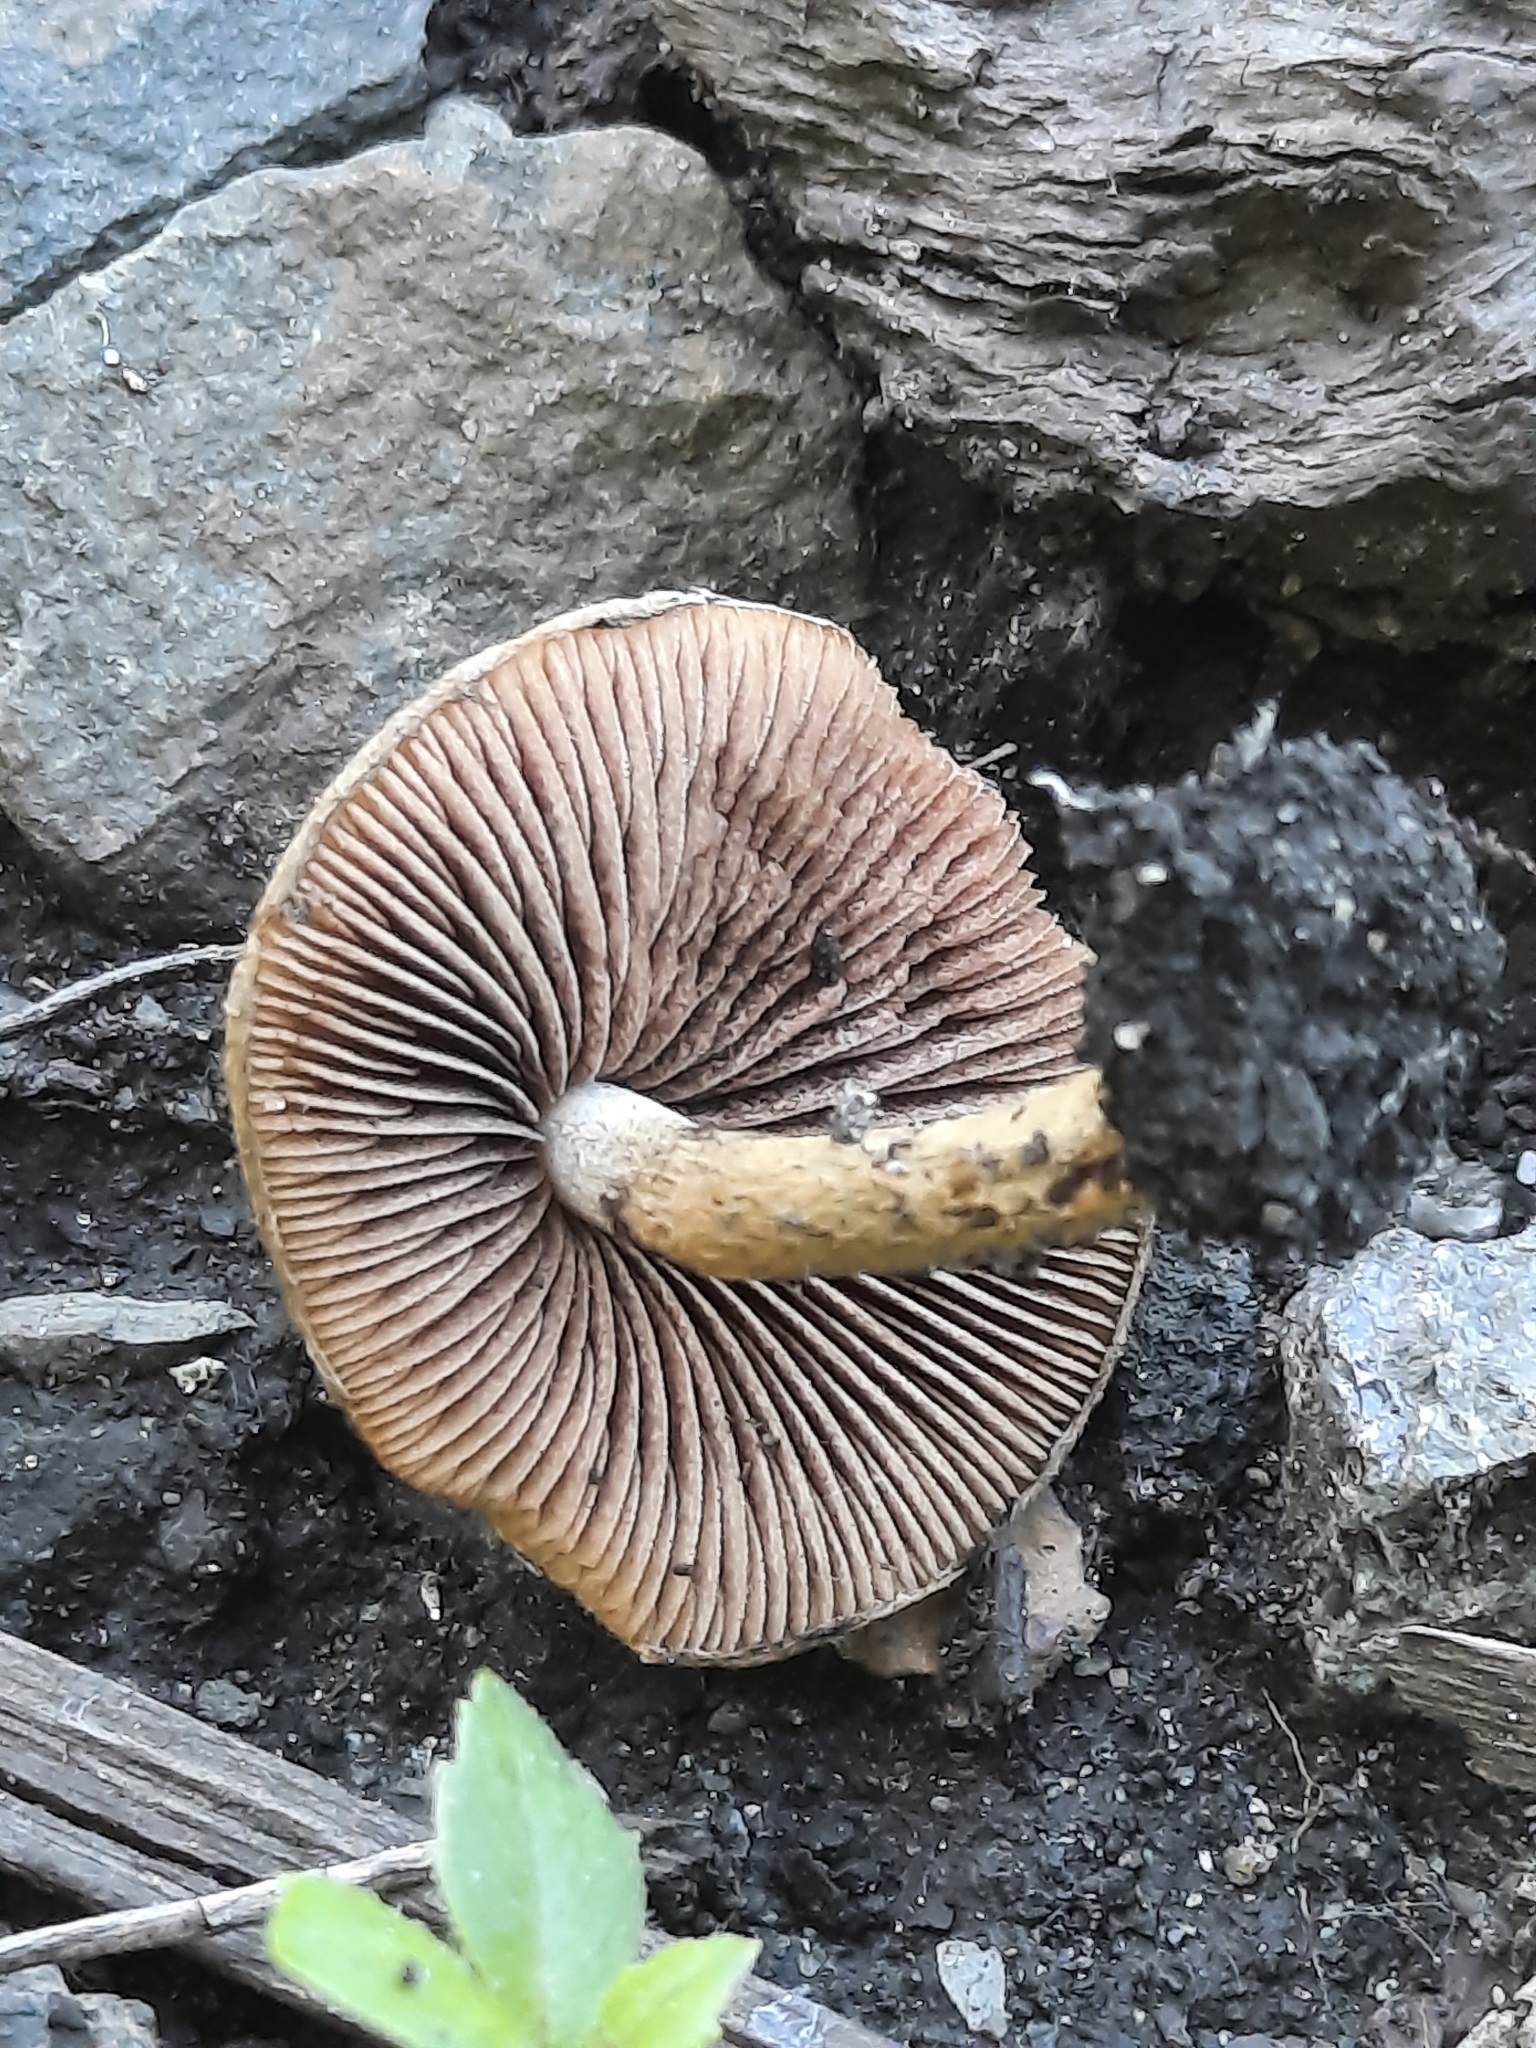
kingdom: Fungi
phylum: Basidiomycota
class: Agaricomycetes
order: Agaricales
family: Psathyrellaceae
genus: Lacrymaria
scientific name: Lacrymaria lacrymabunda
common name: Weeping widow
